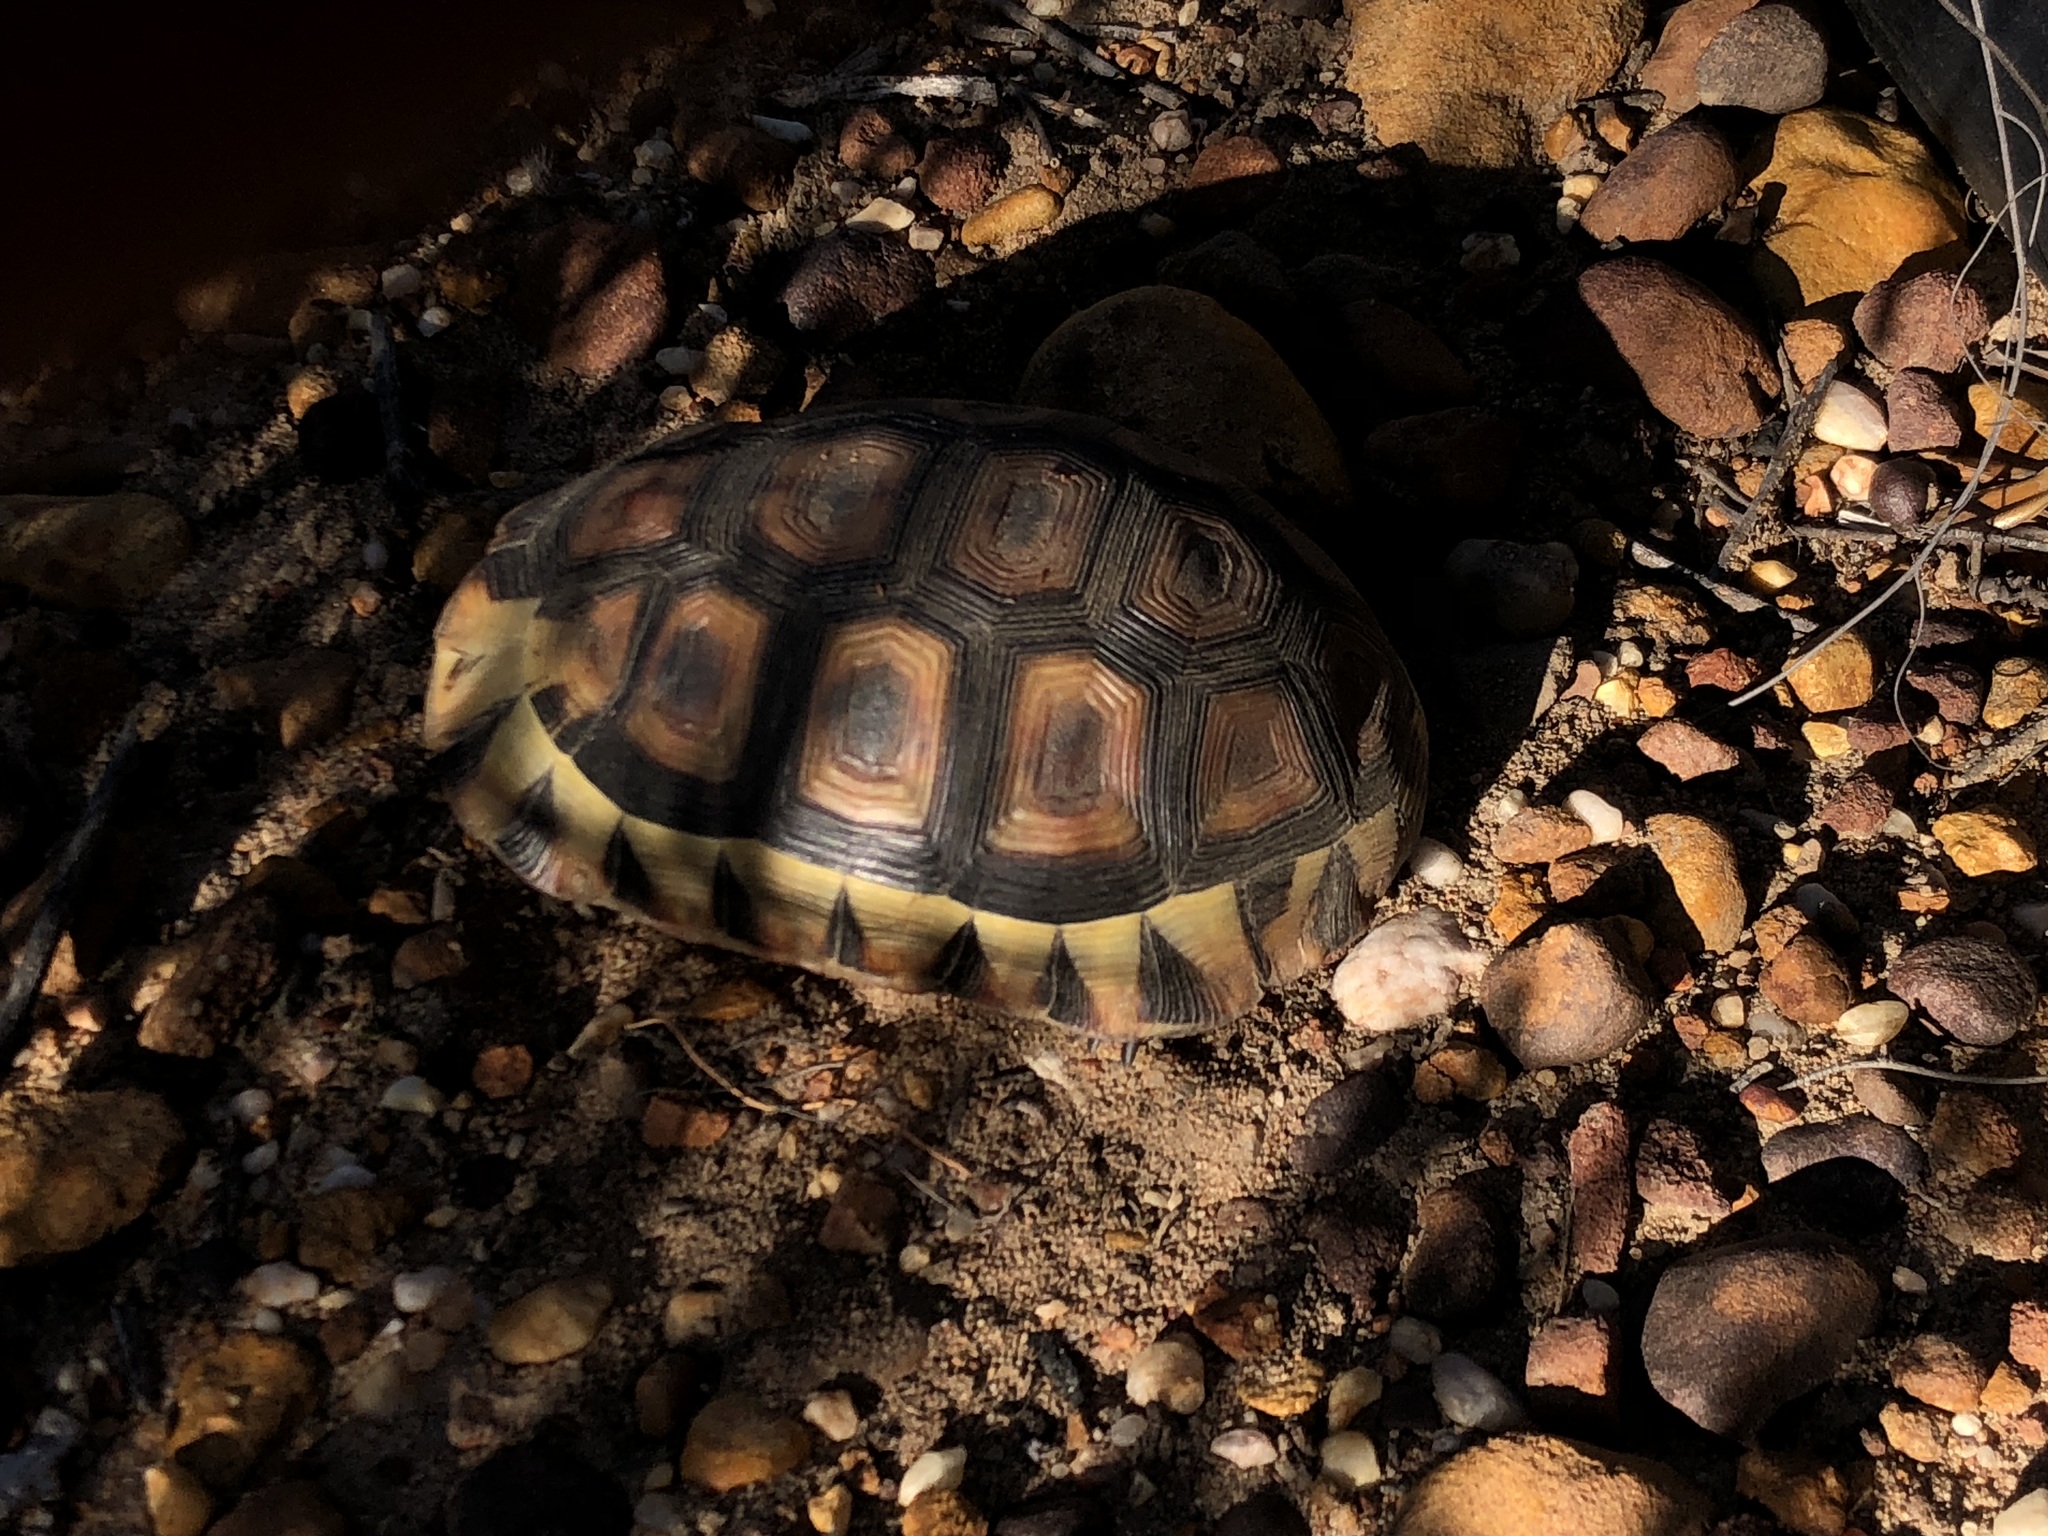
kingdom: Animalia
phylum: Chordata
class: Testudines
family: Testudinidae
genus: Chersina
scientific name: Chersina angulata
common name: South african bowsprit tortoise
